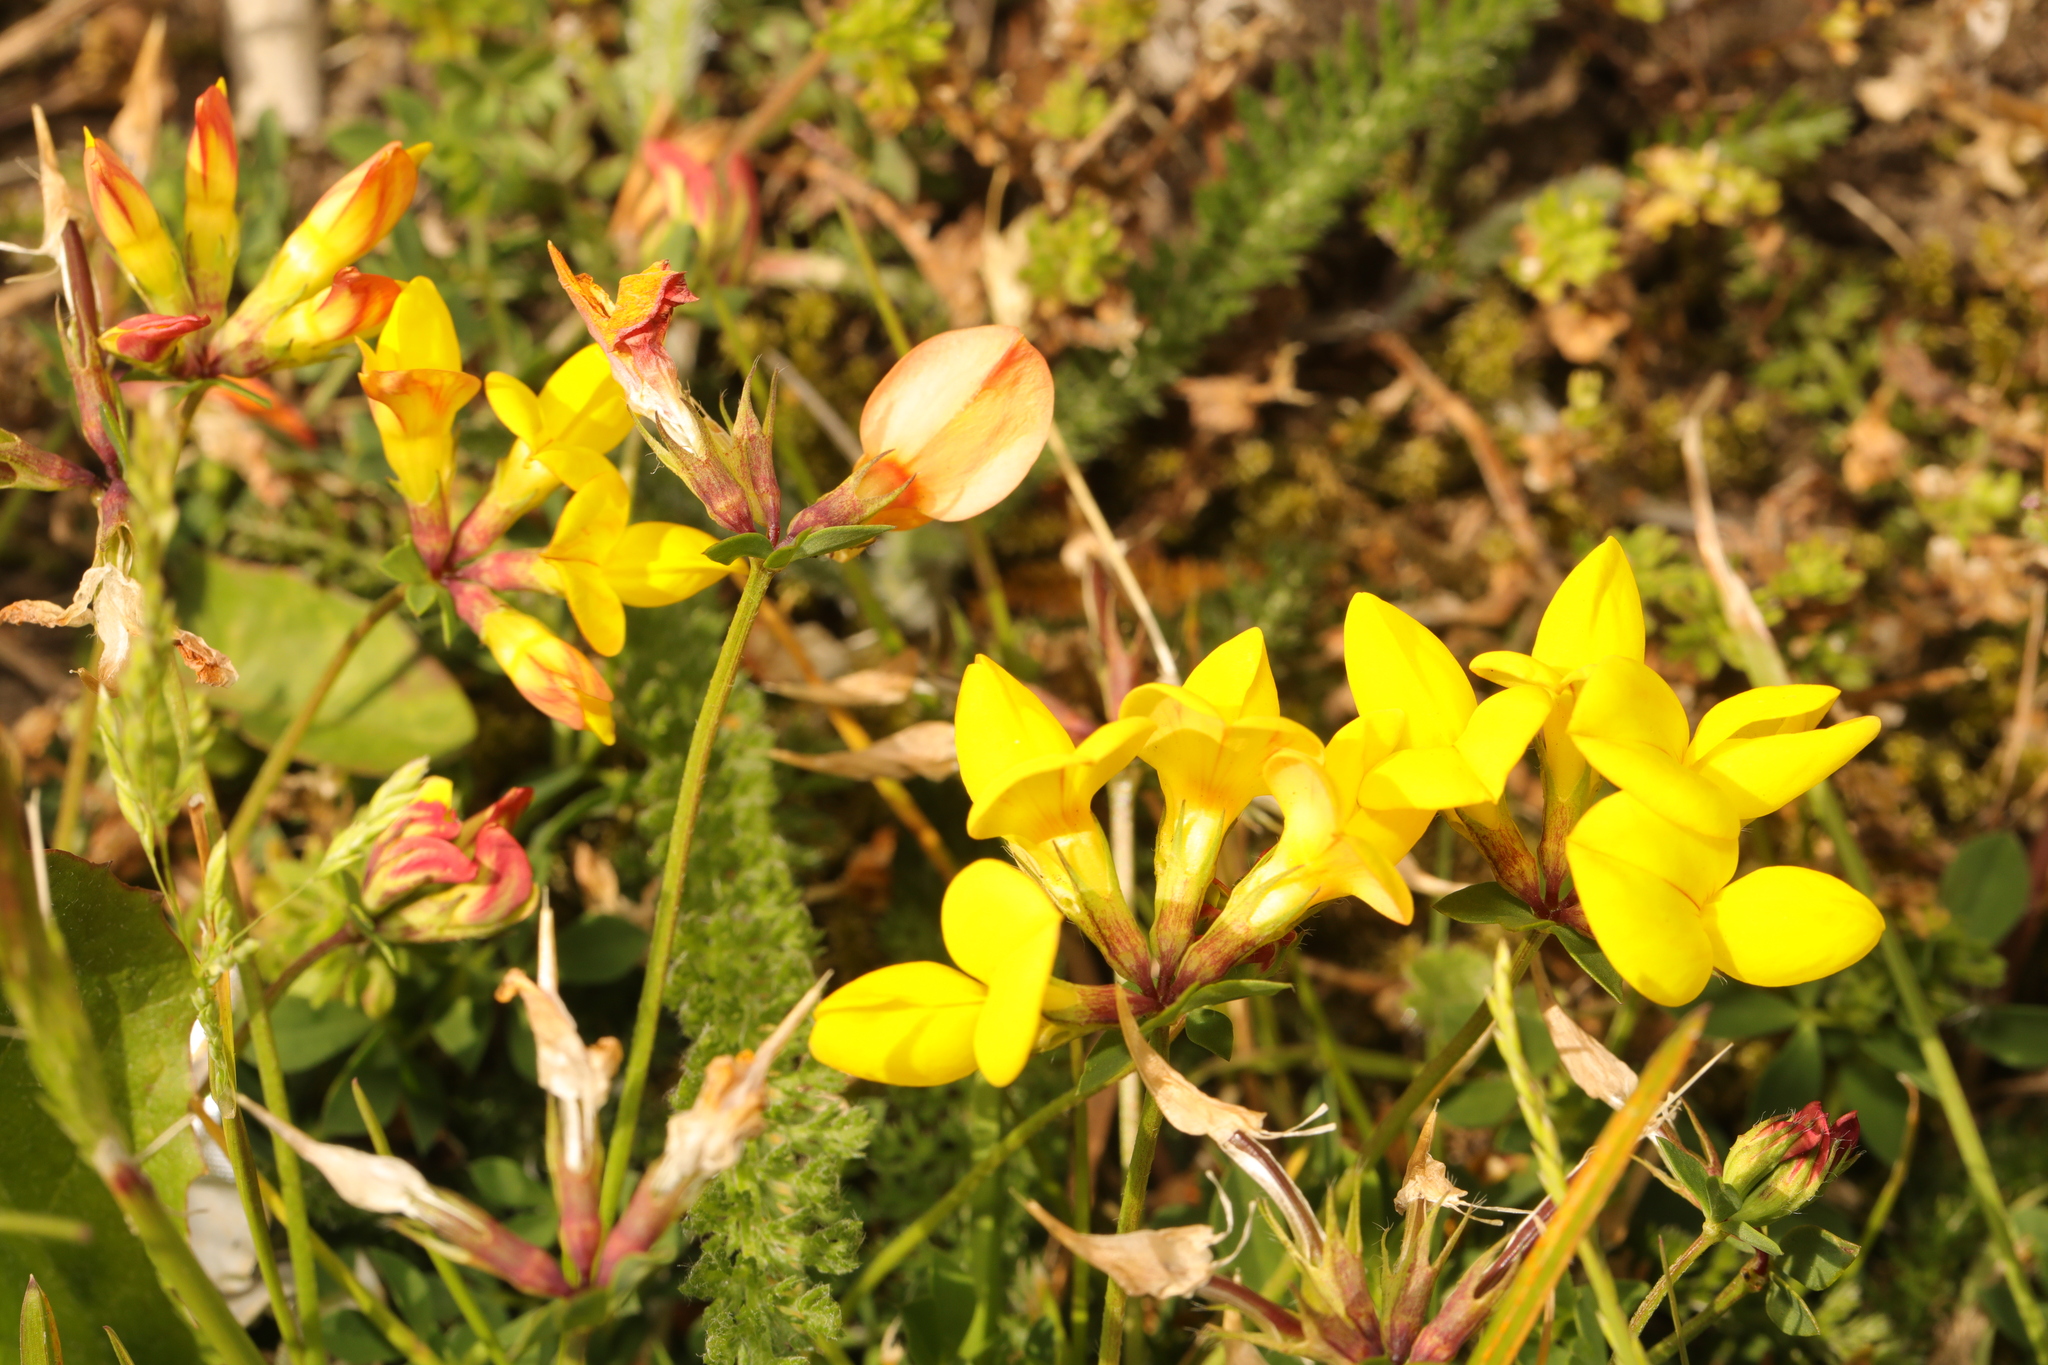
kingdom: Plantae
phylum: Tracheophyta
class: Magnoliopsida
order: Fabales
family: Fabaceae
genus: Lotus
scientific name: Lotus corniculatus
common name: Common bird's-foot-trefoil
